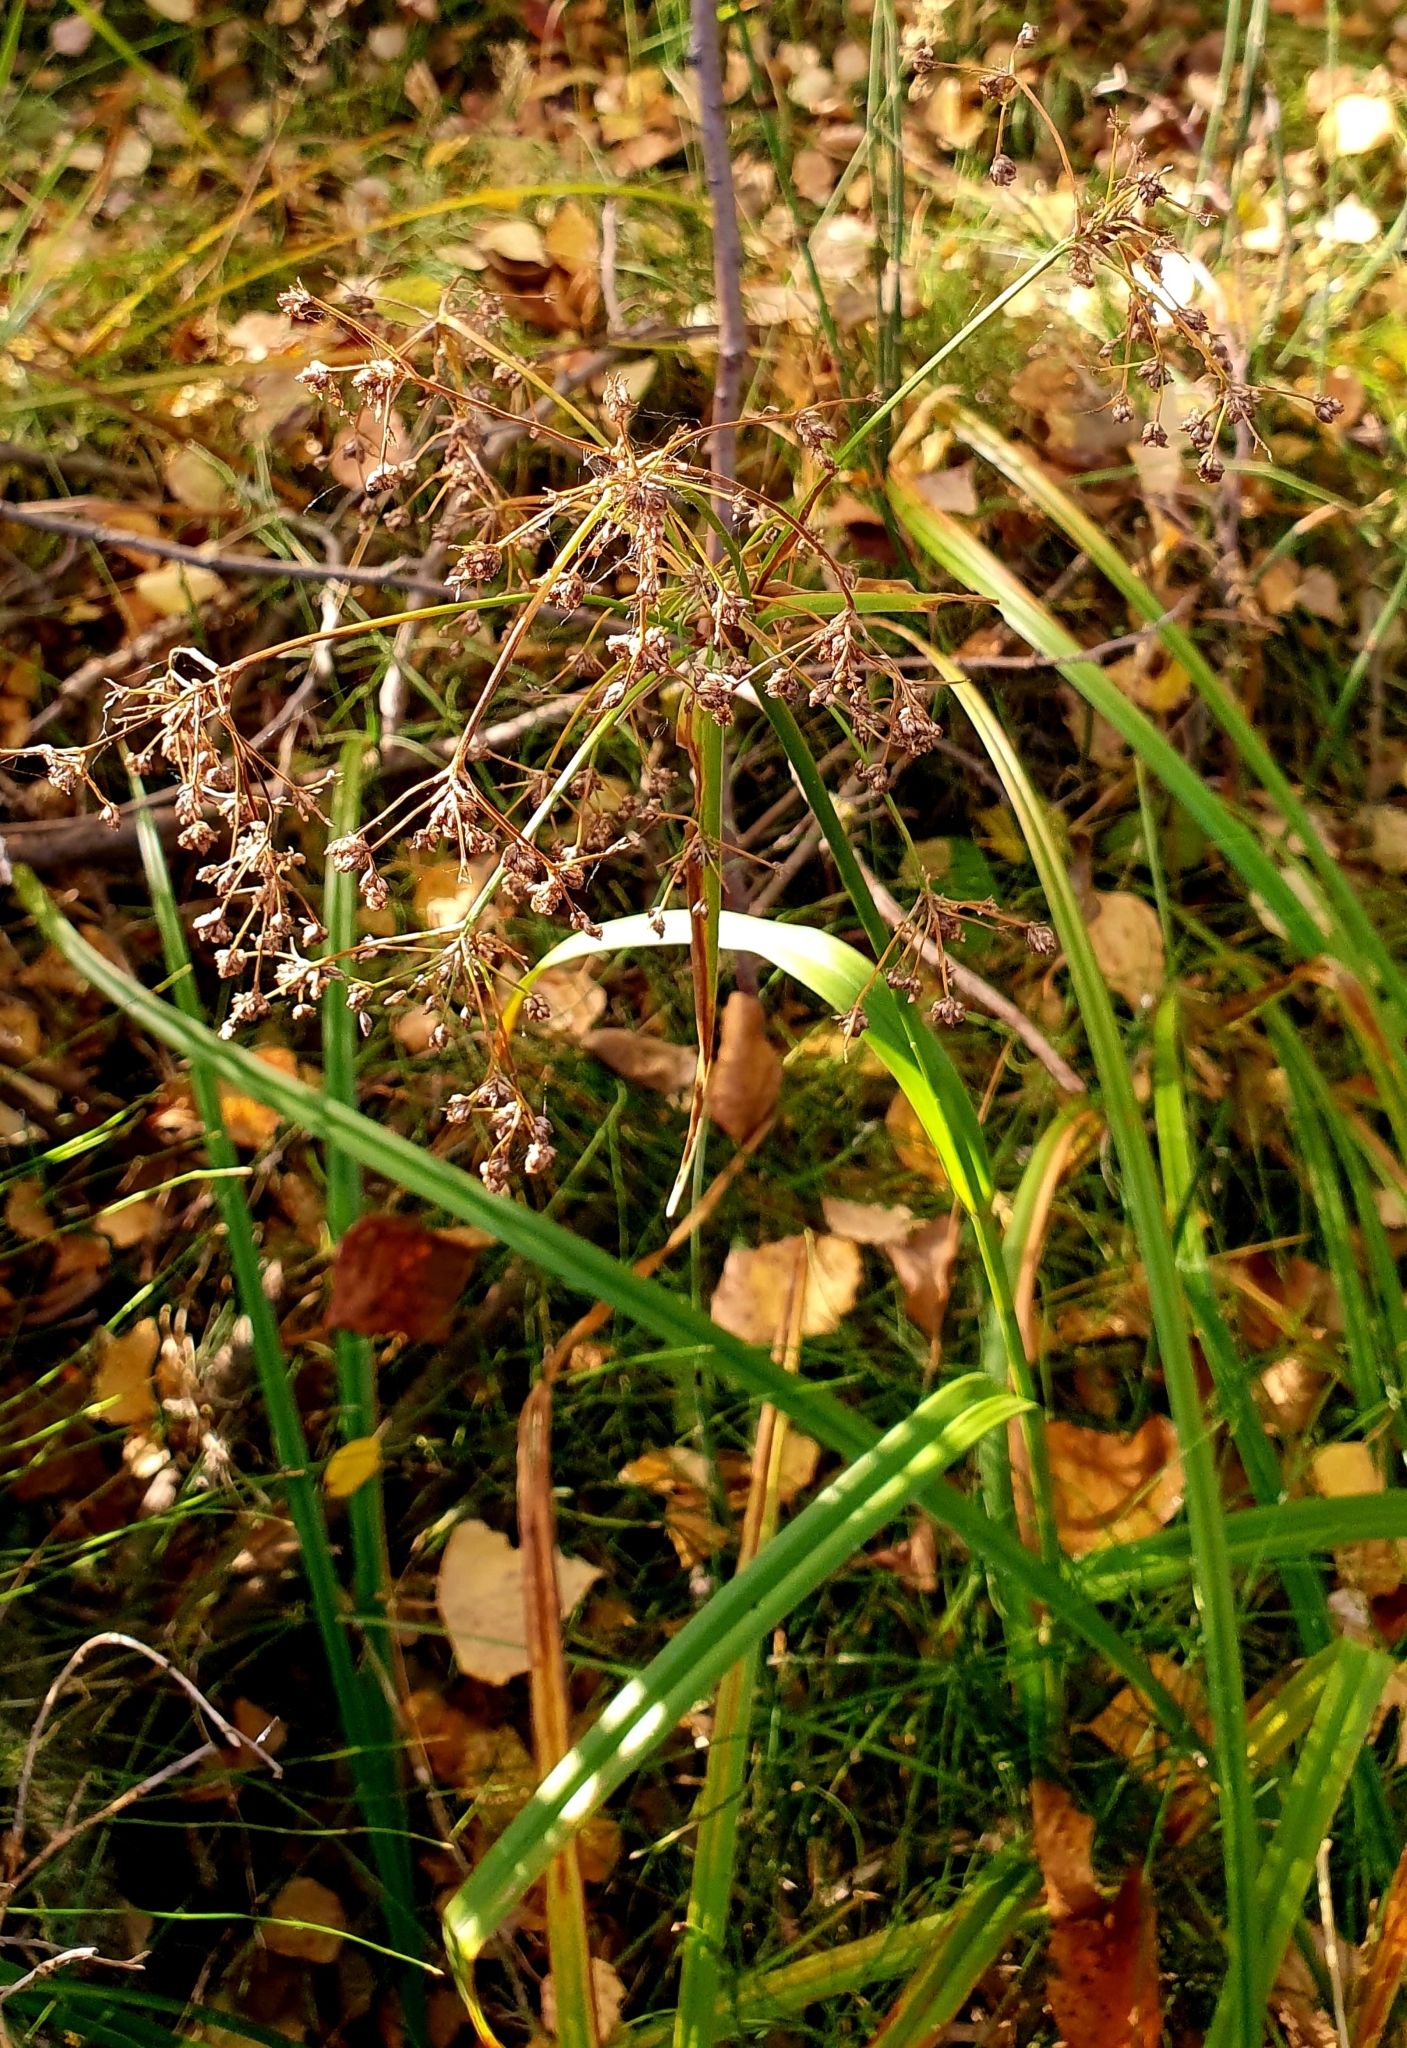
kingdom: Plantae
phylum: Tracheophyta
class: Liliopsida
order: Poales
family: Cyperaceae
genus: Scirpus
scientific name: Scirpus sylvaticus
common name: Wood club-rush
